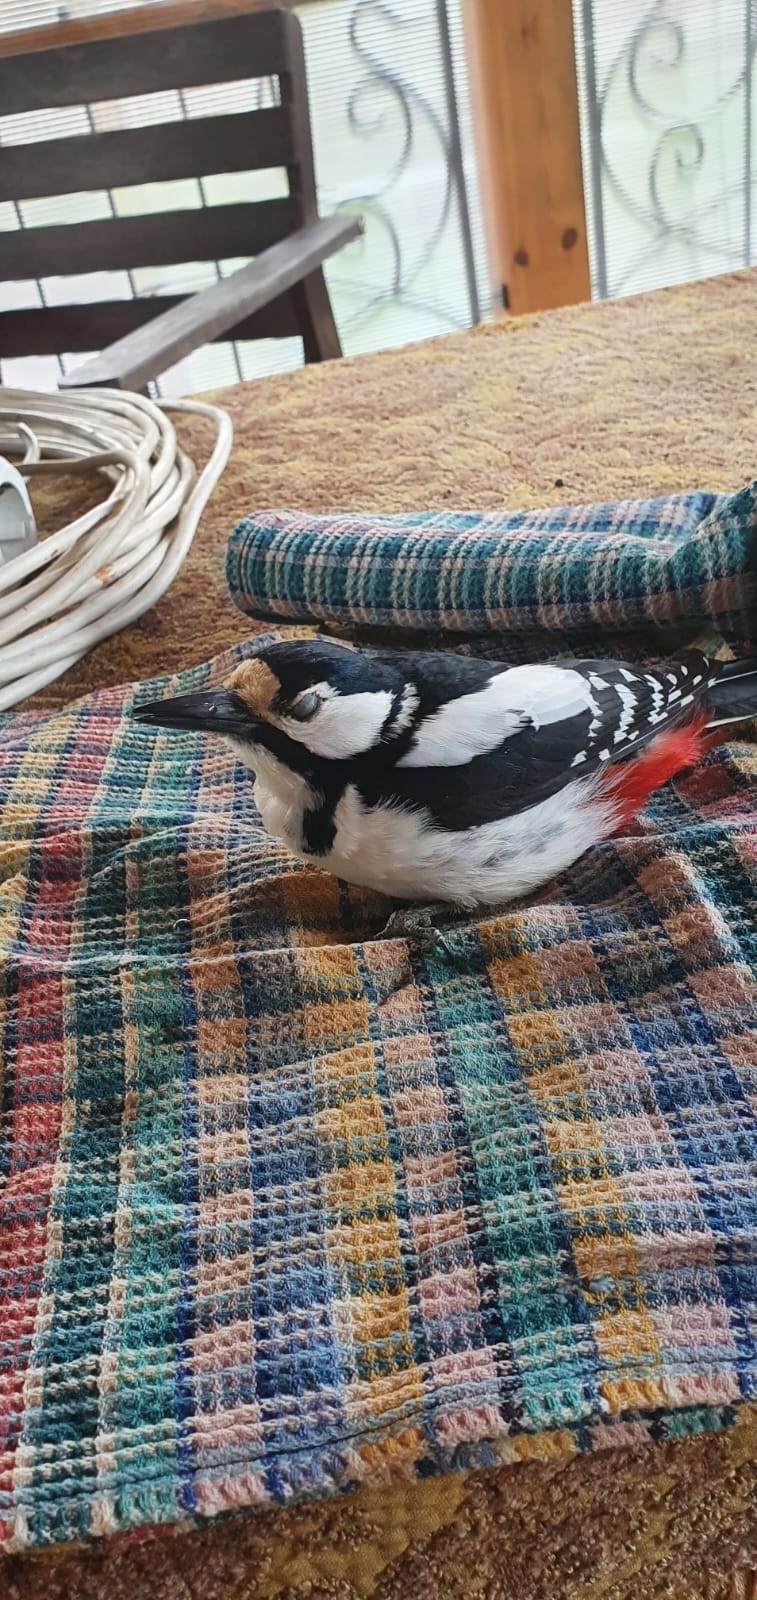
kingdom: Animalia
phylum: Chordata
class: Aves
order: Piciformes
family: Picidae
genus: Dendrocopos
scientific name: Dendrocopos major
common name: Great spotted woodpecker
